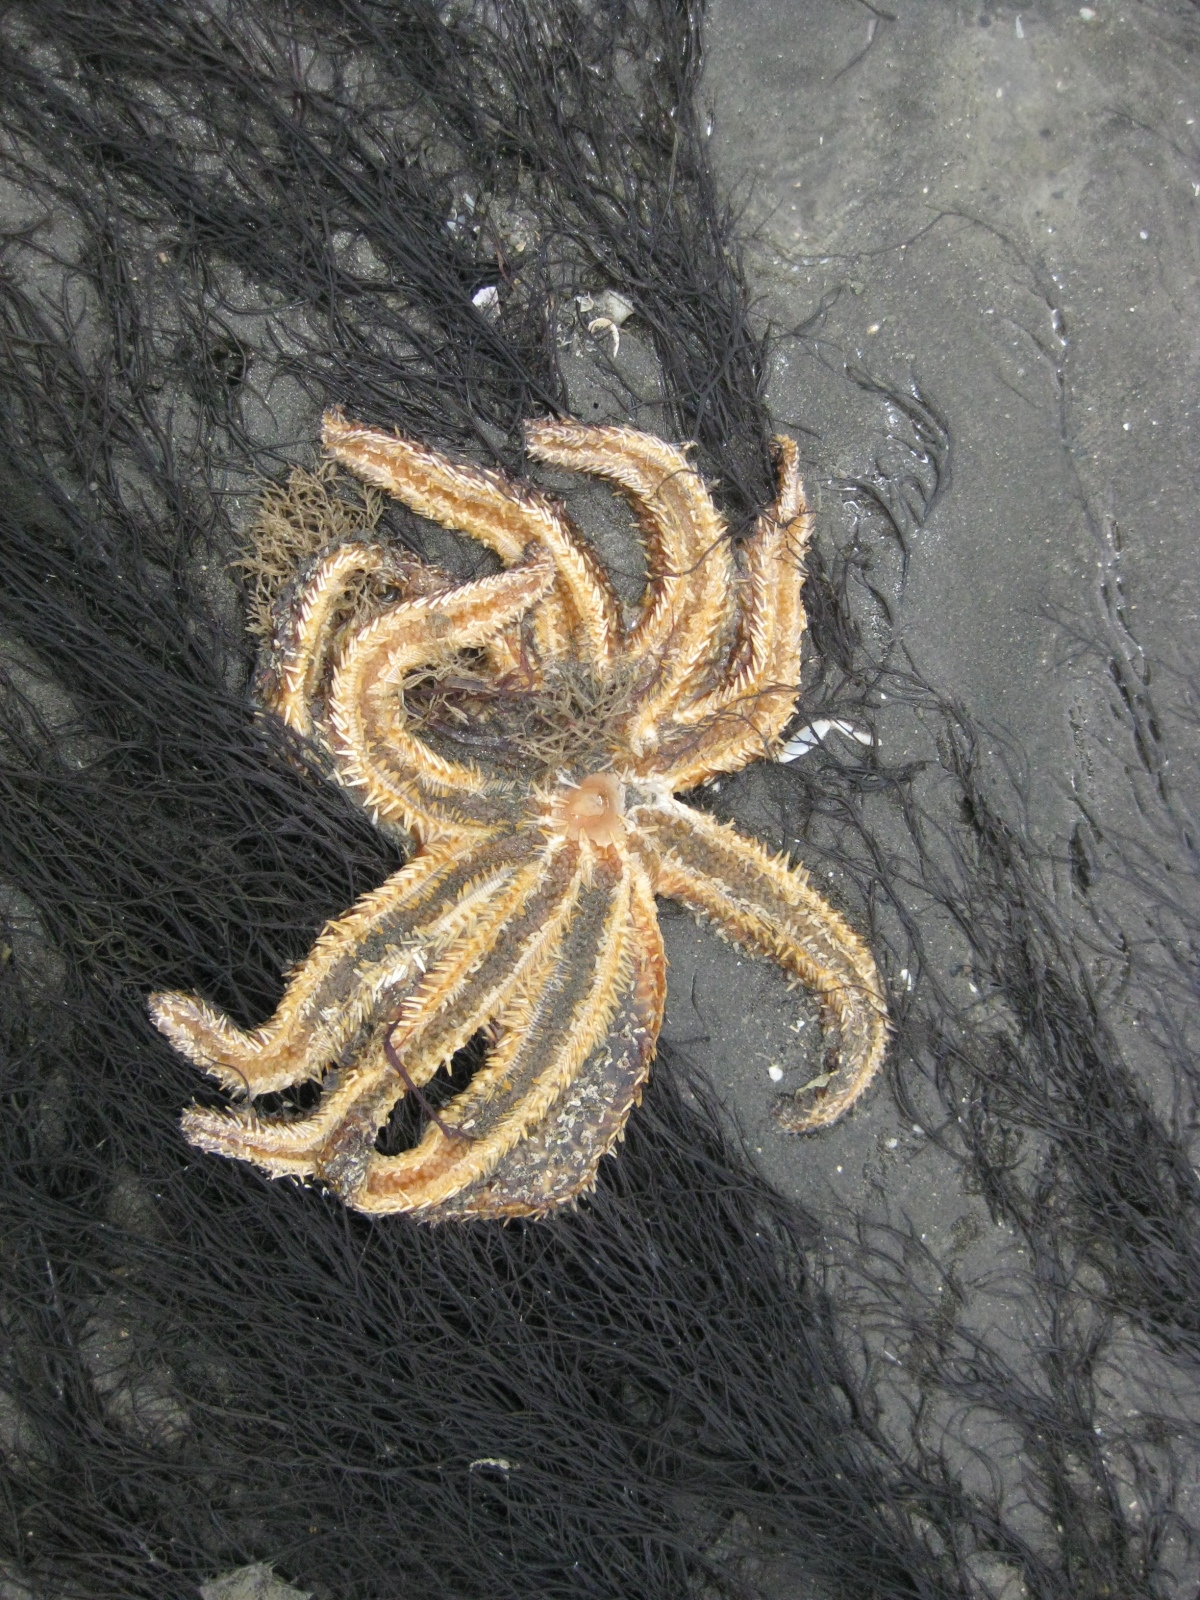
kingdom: Animalia
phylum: Echinodermata
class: Asteroidea
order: Forcipulatida
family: Asteriidae
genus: Coscinasterias
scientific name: Coscinasterias muricata
